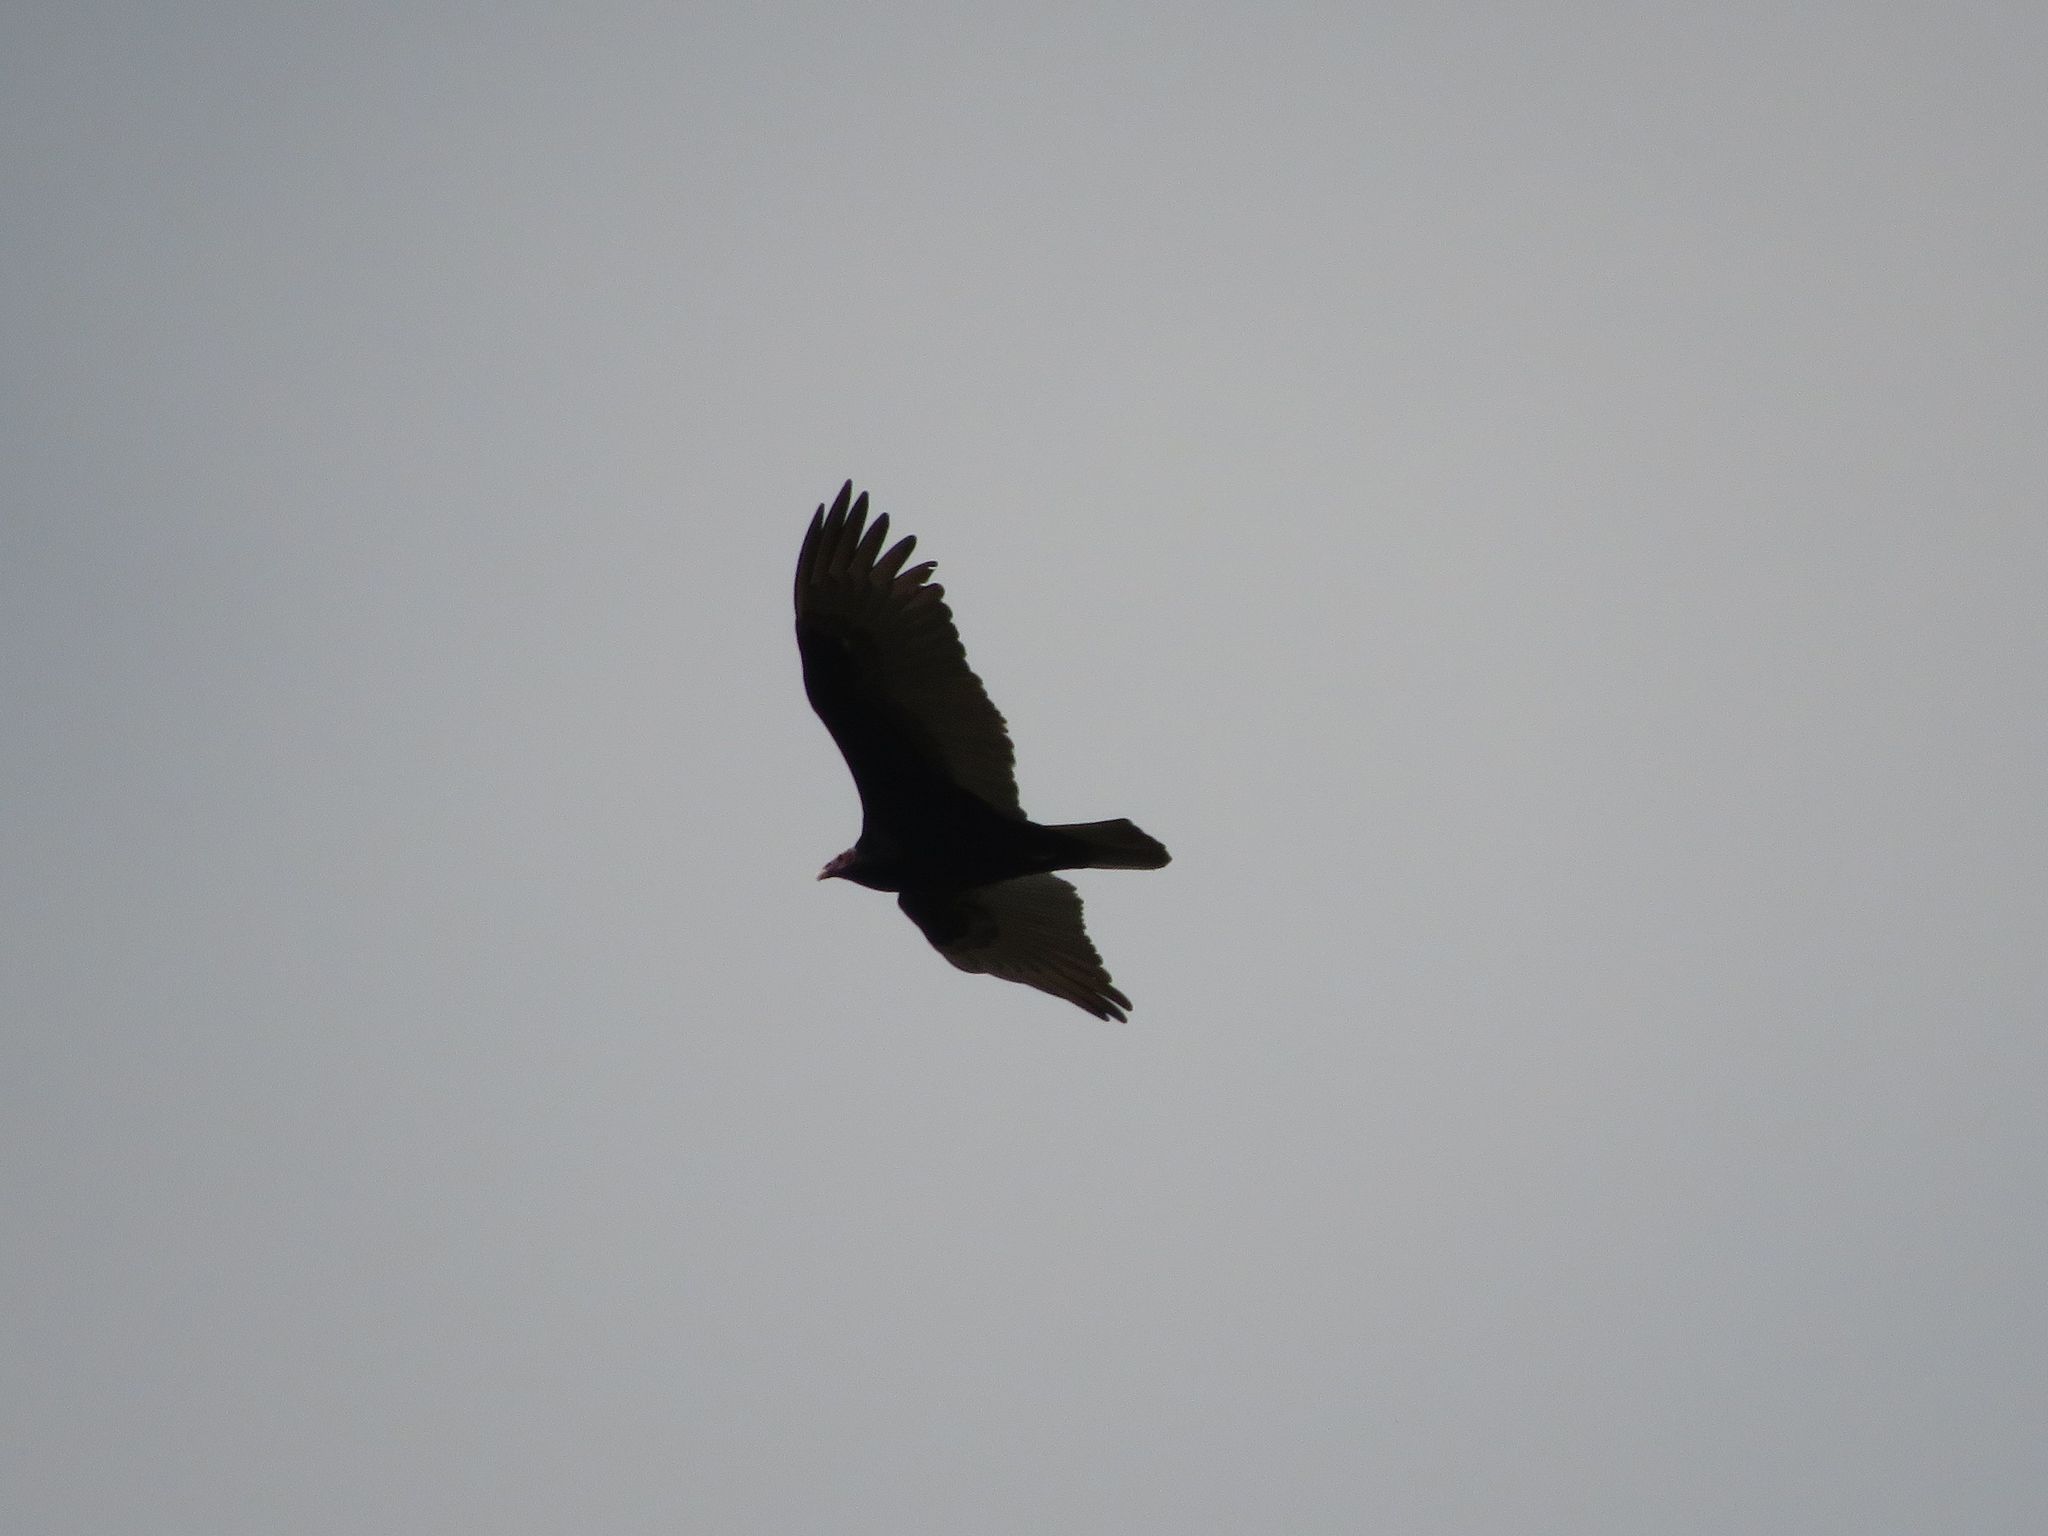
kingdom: Animalia
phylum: Chordata
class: Aves
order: Accipitriformes
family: Cathartidae
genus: Cathartes
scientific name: Cathartes aura
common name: Turkey vulture
